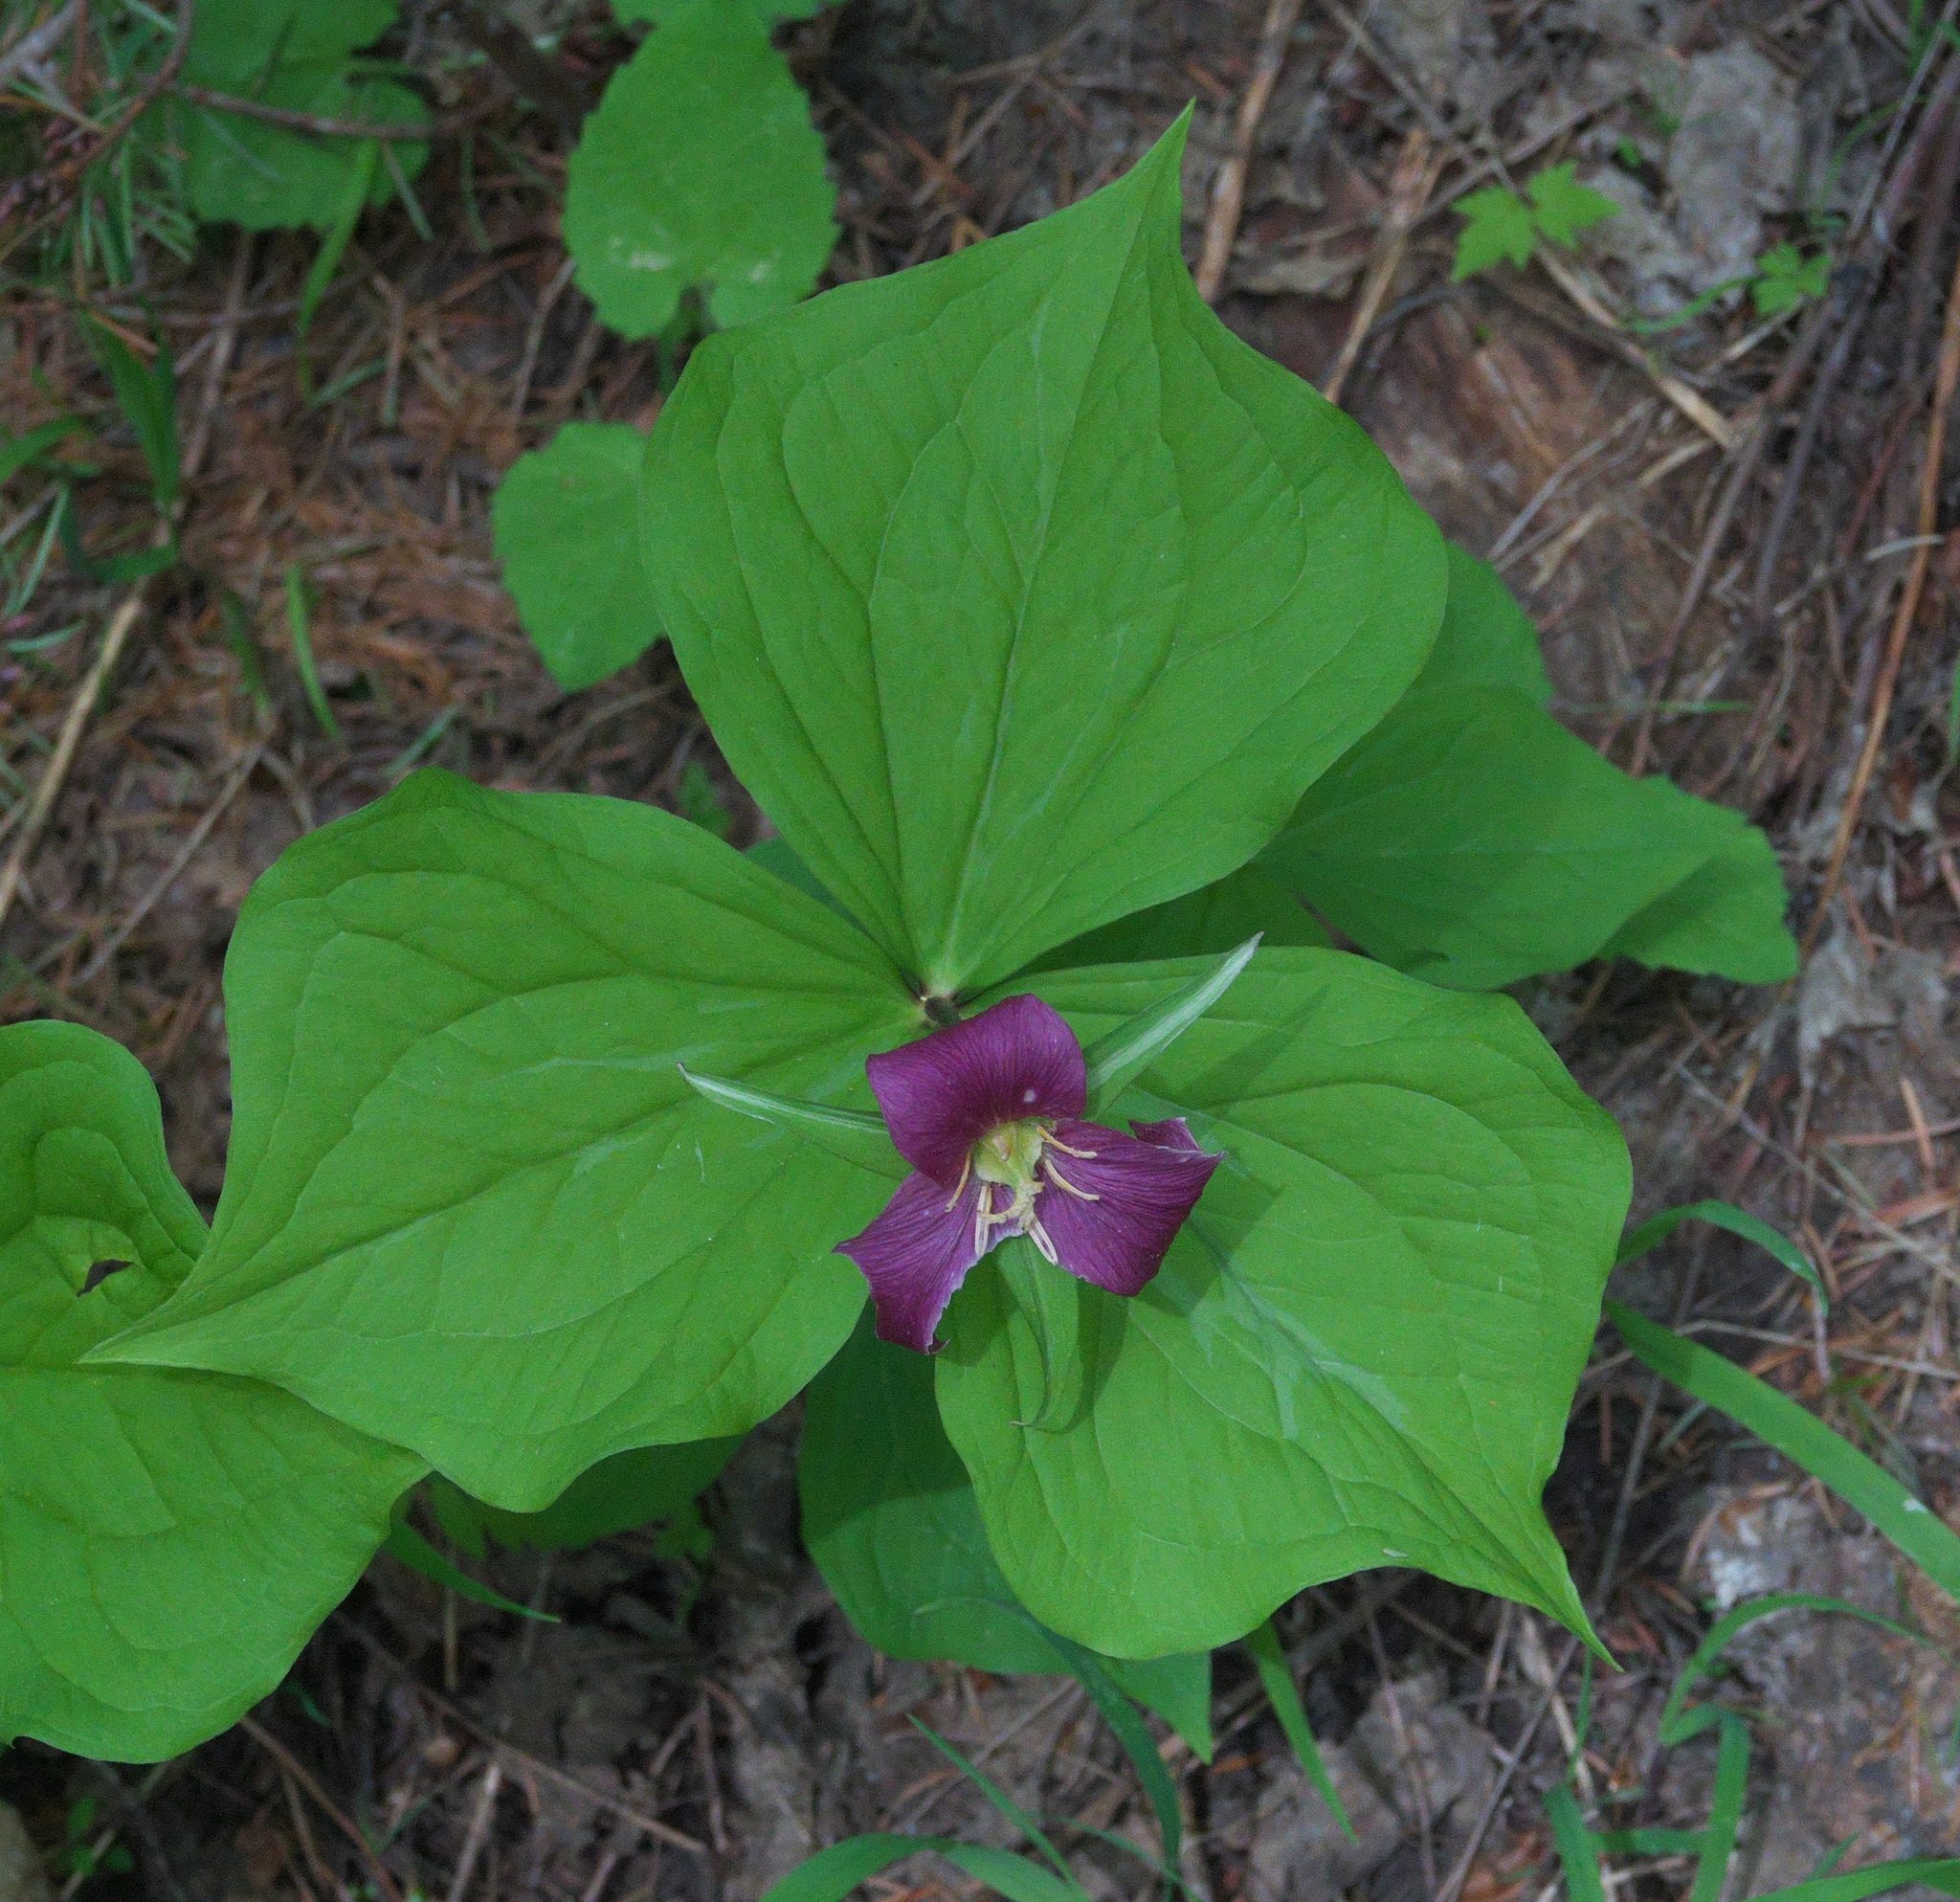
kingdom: Plantae
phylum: Tracheophyta
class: Liliopsida
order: Liliales
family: Melanthiaceae
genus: Trillium
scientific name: Trillium ovatum
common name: Pacific trillium
